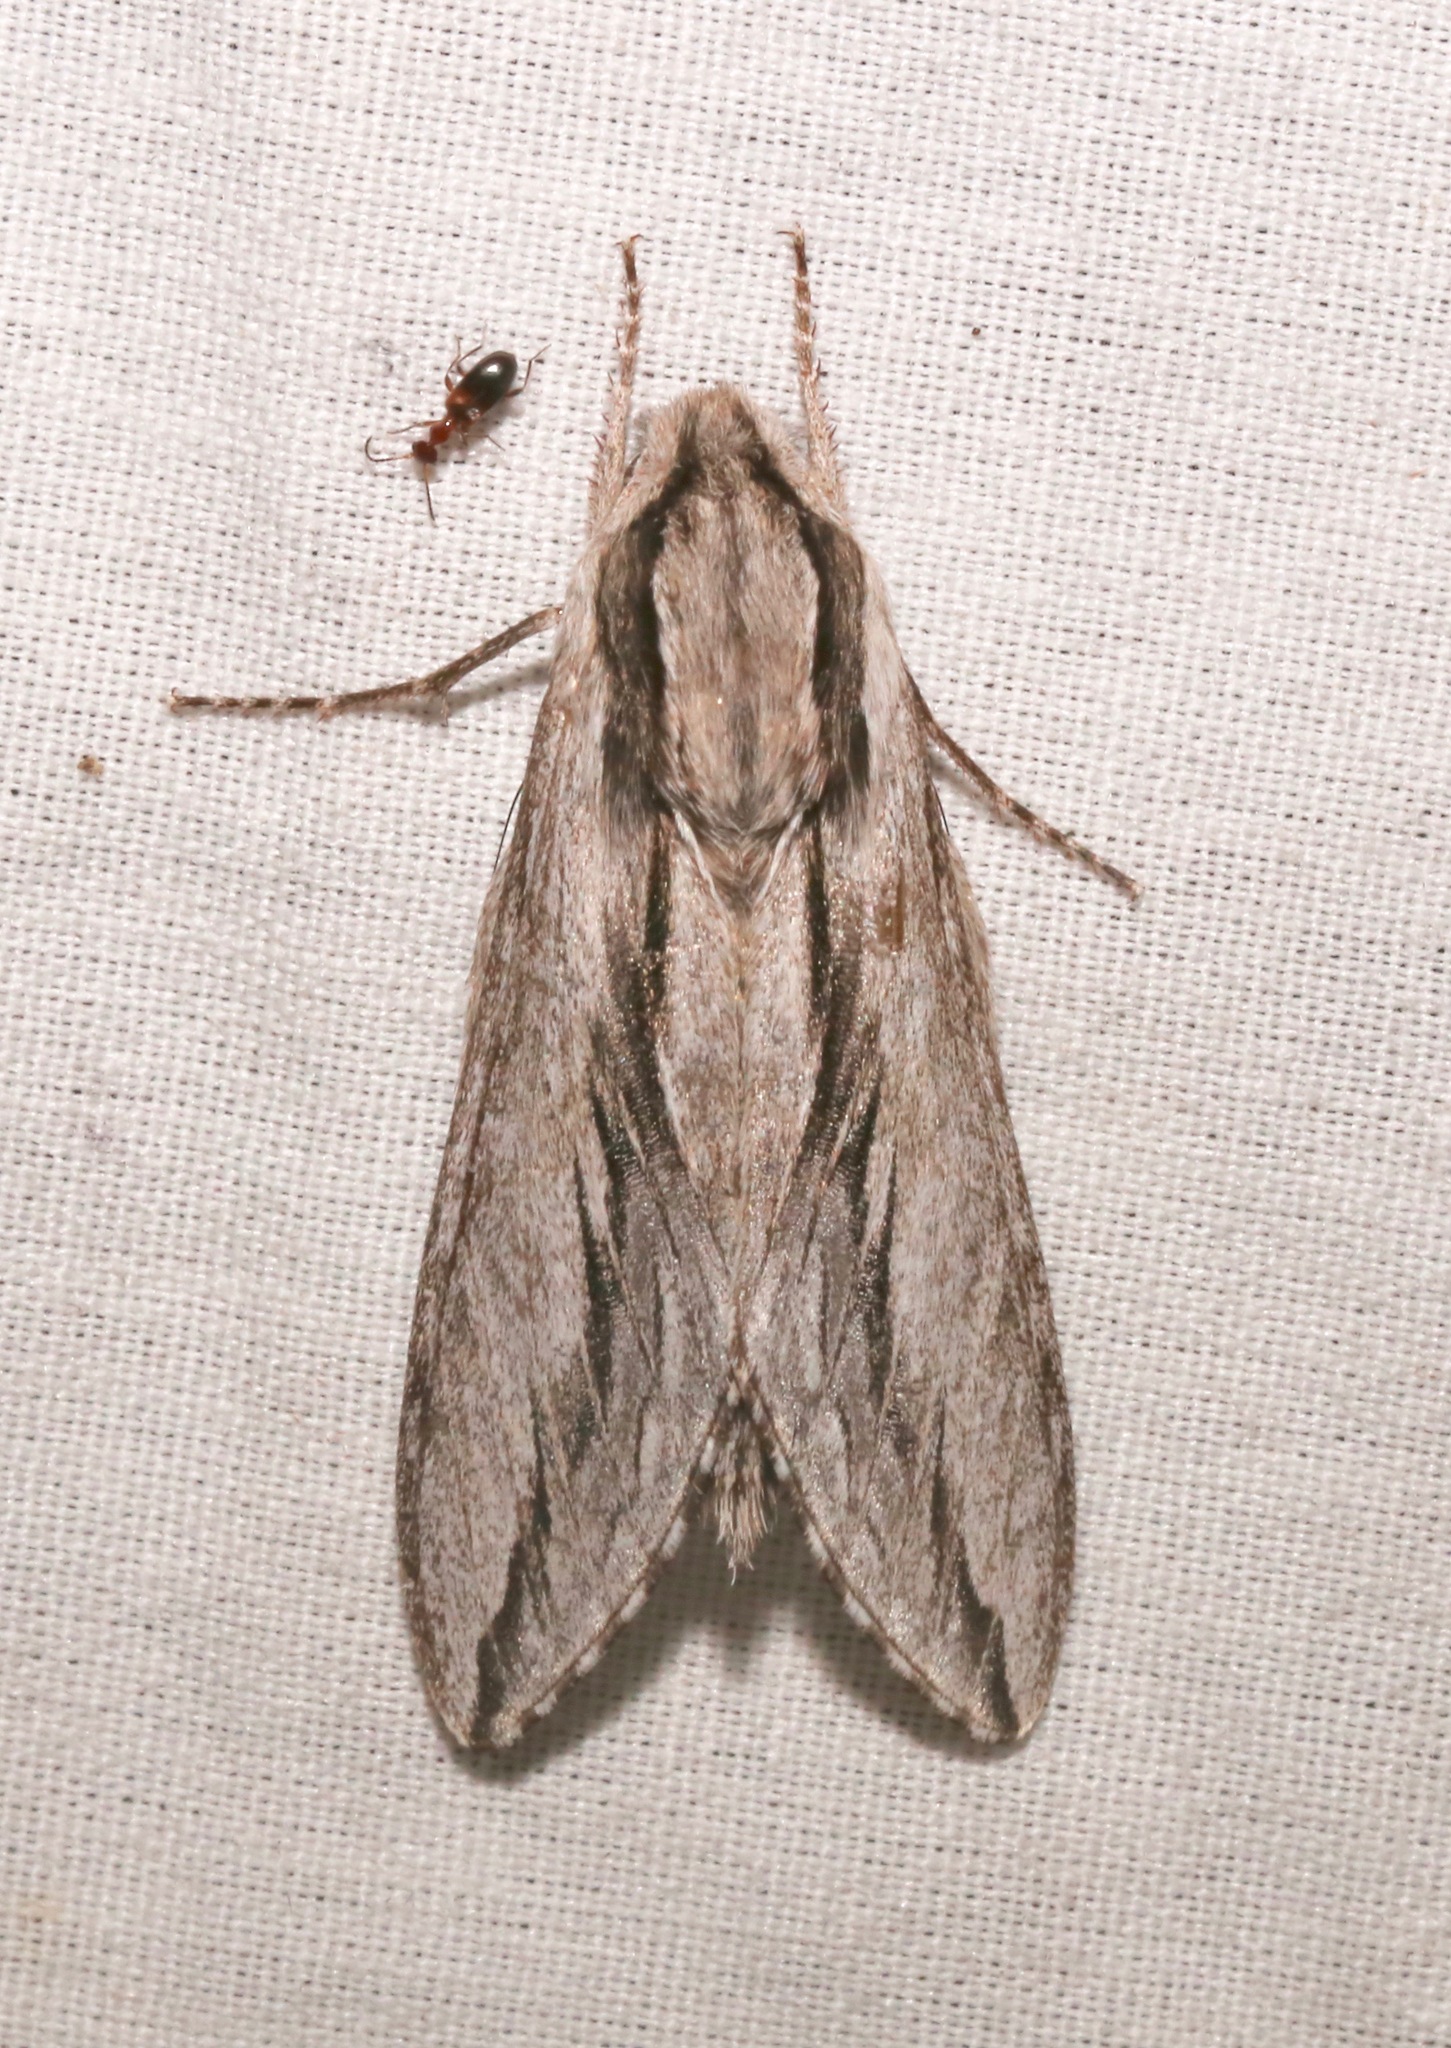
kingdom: Animalia
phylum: Arthropoda
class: Insecta
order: Lepidoptera
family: Sphingidae
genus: Sphinx
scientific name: Sphinx dollii
